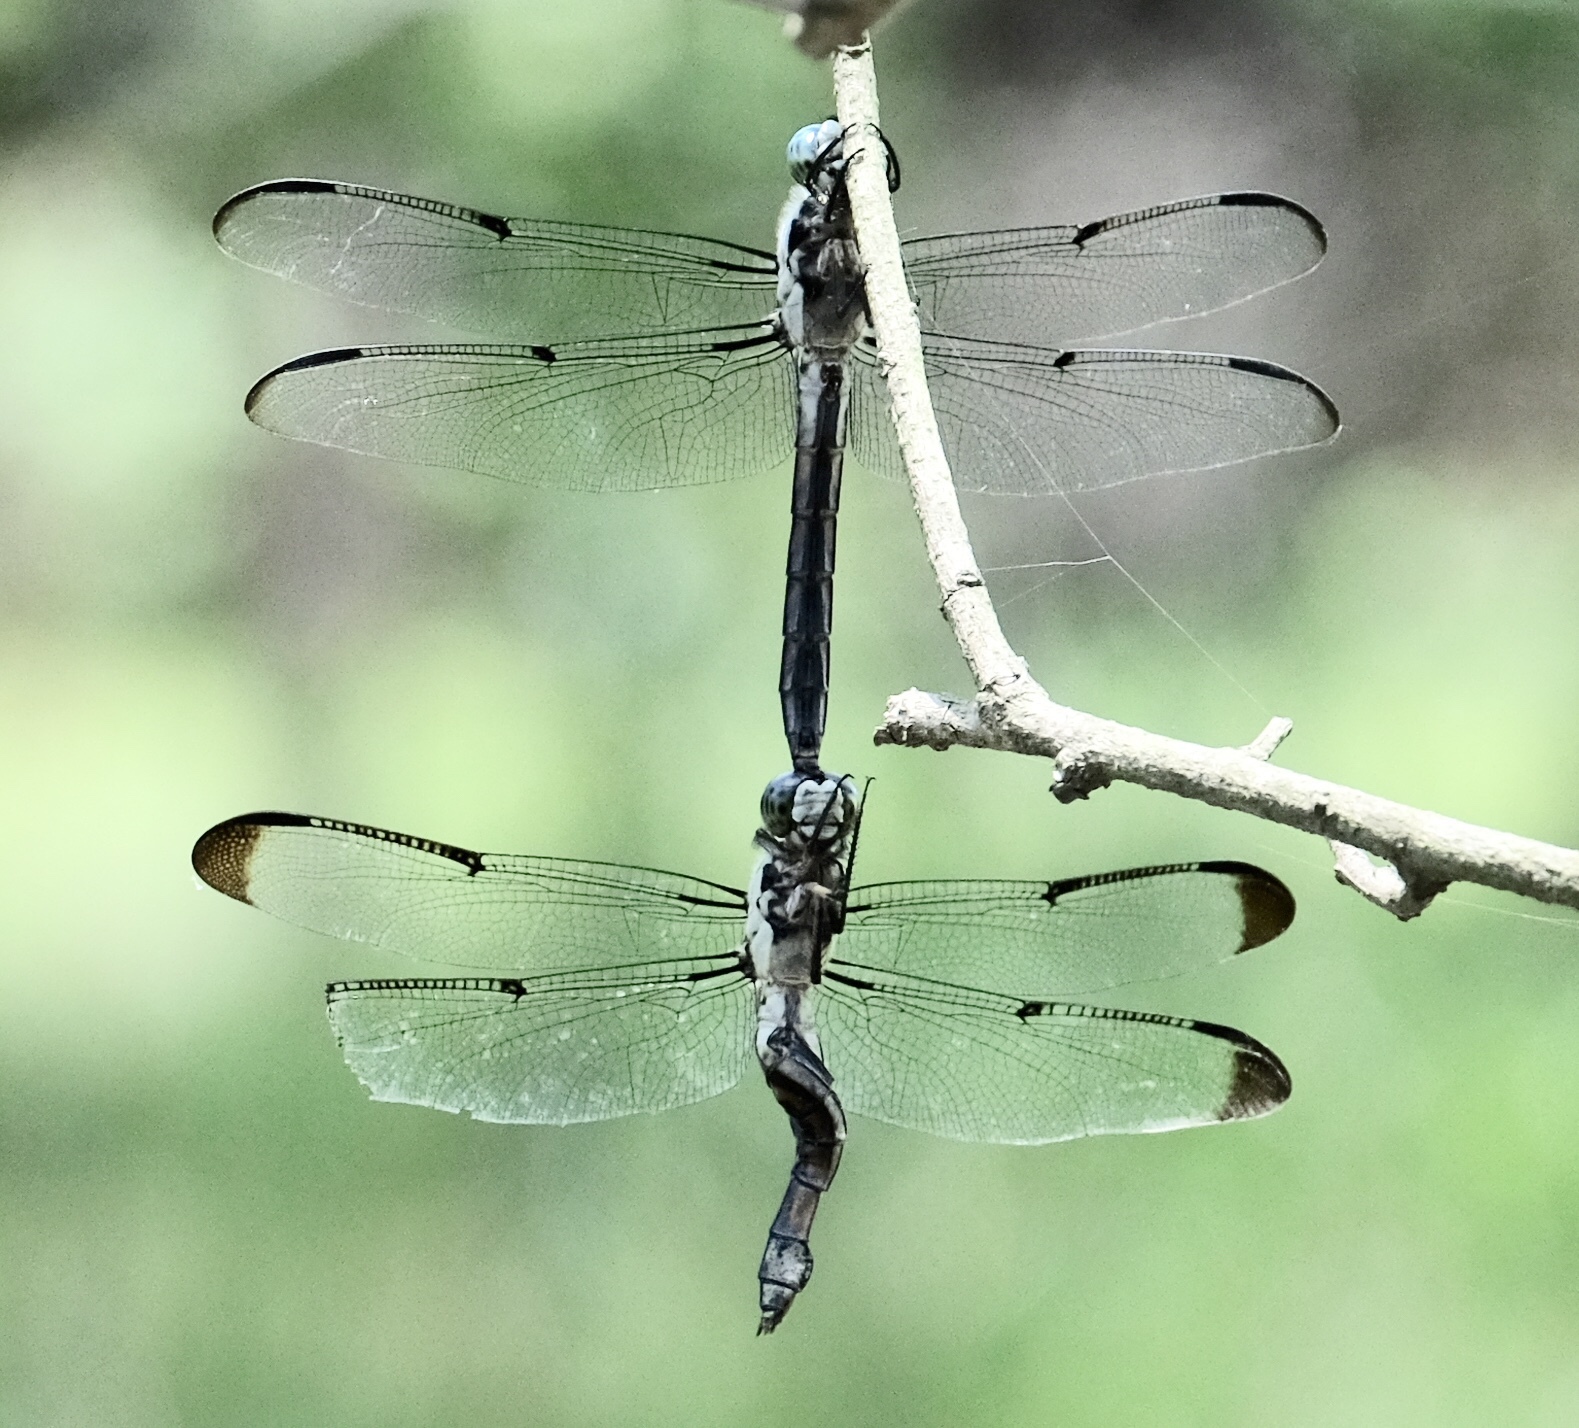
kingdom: Animalia
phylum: Arthropoda
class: Insecta
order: Odonata
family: Libellulidae
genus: Libellula
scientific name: Libellula vibrans
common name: Great blue skimmer
